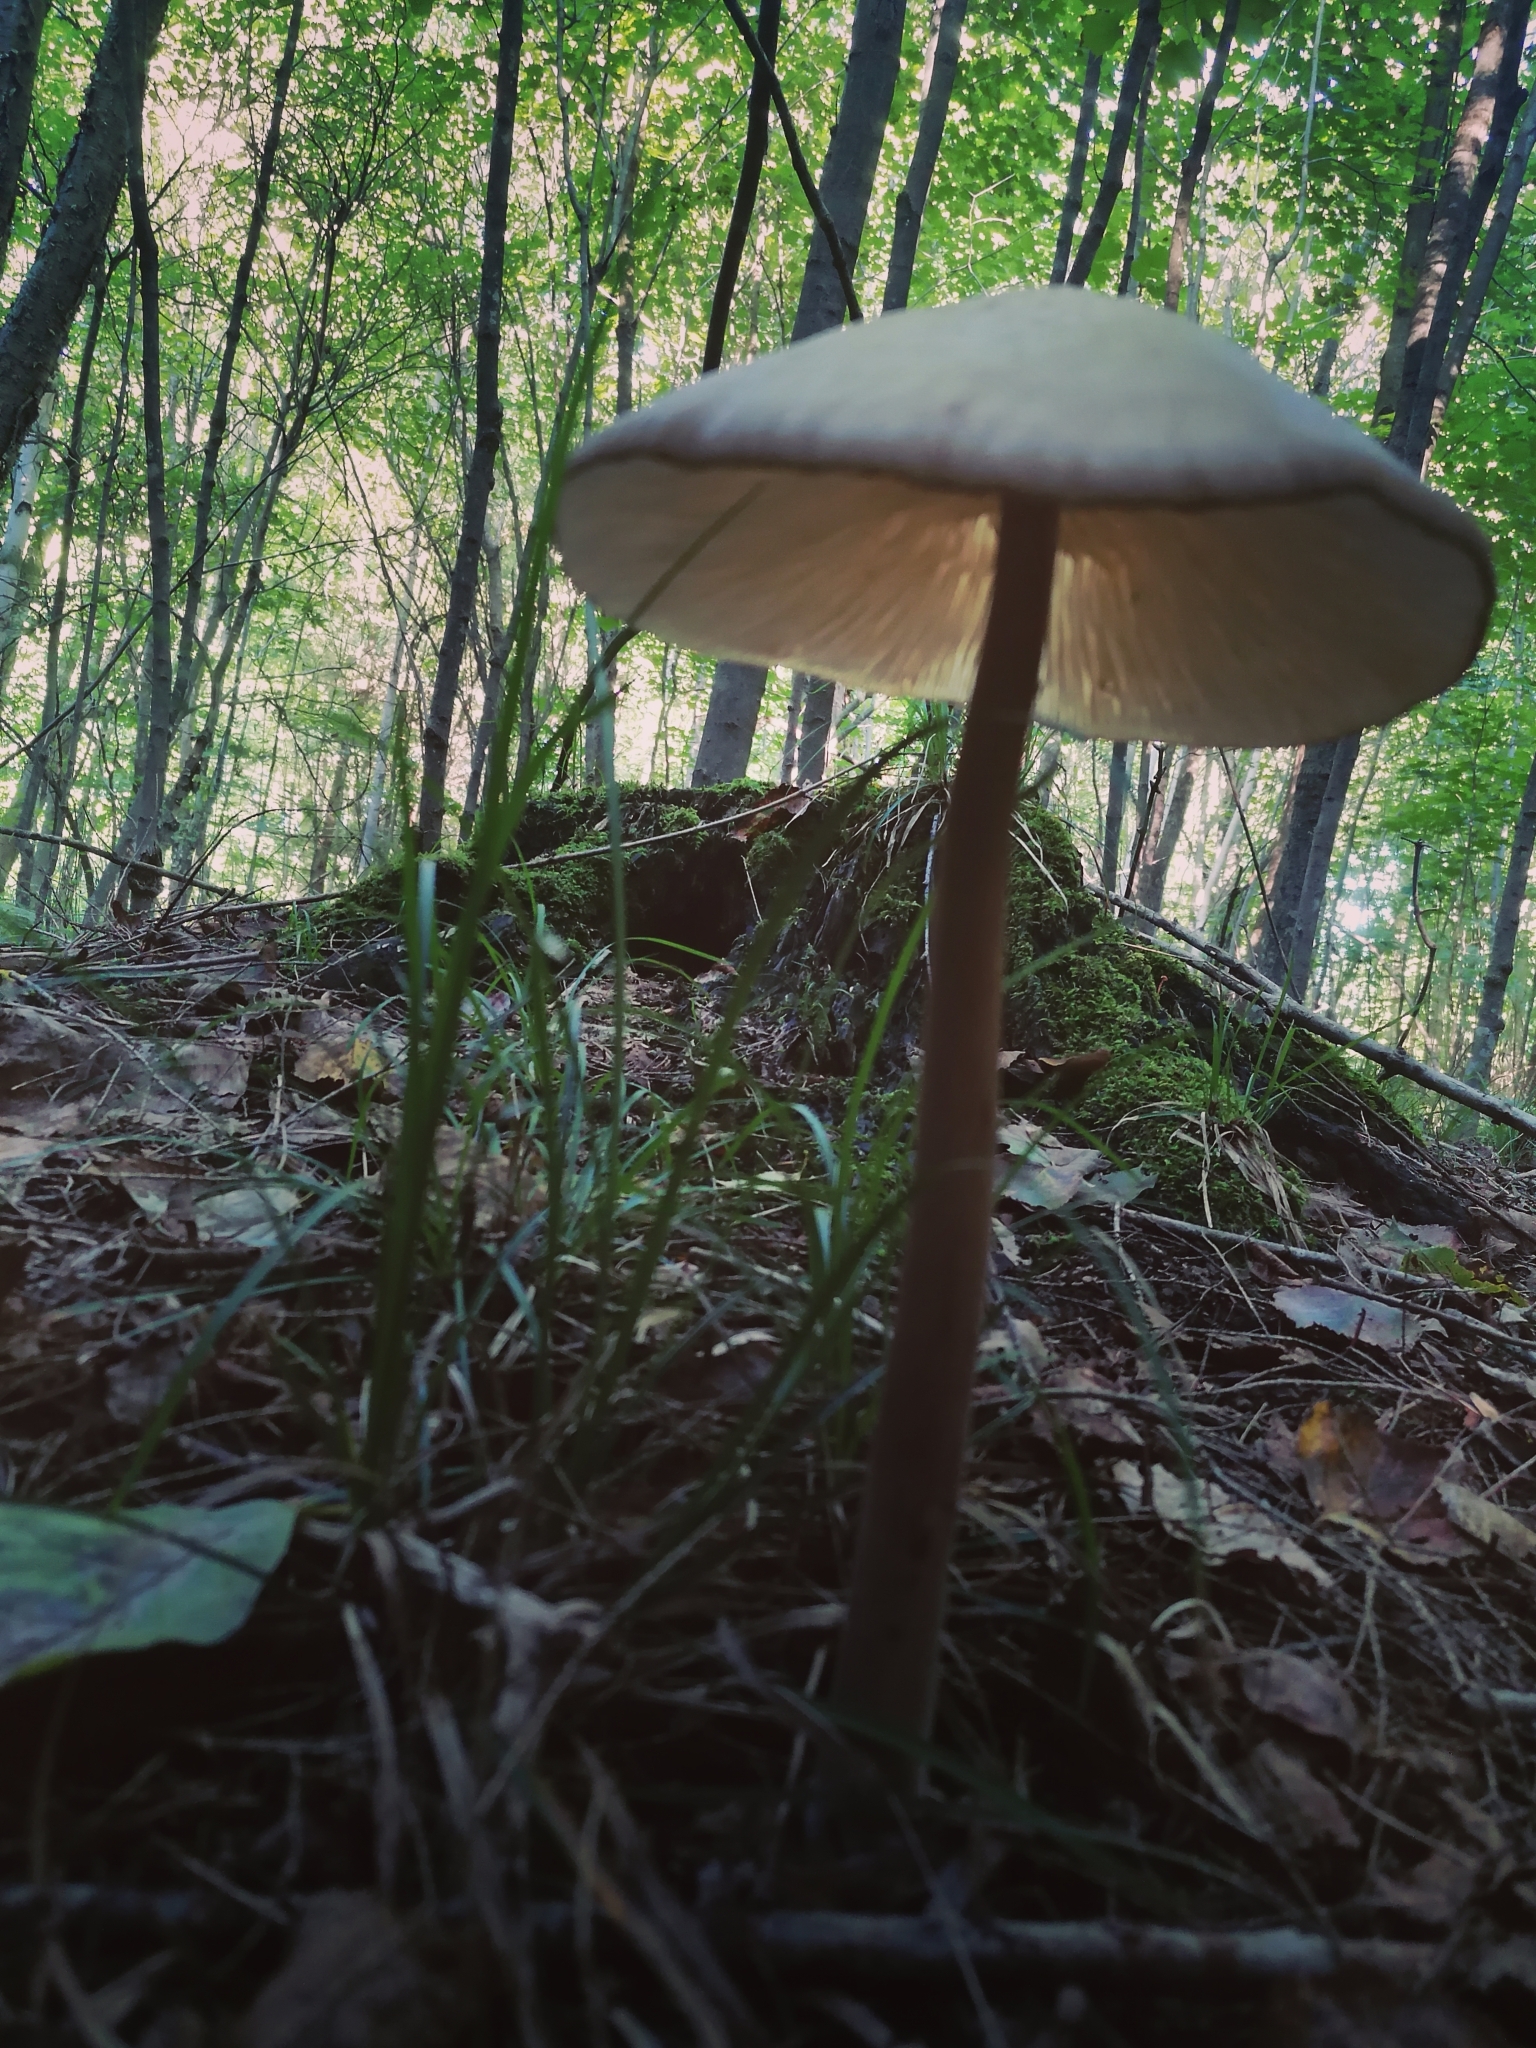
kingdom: Fungi
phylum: Basidiomycota
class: Agaricomycetes
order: Agaricales
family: Physalacriaceae
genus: Hymenopellis
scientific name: Hymenopellis furfuracea
